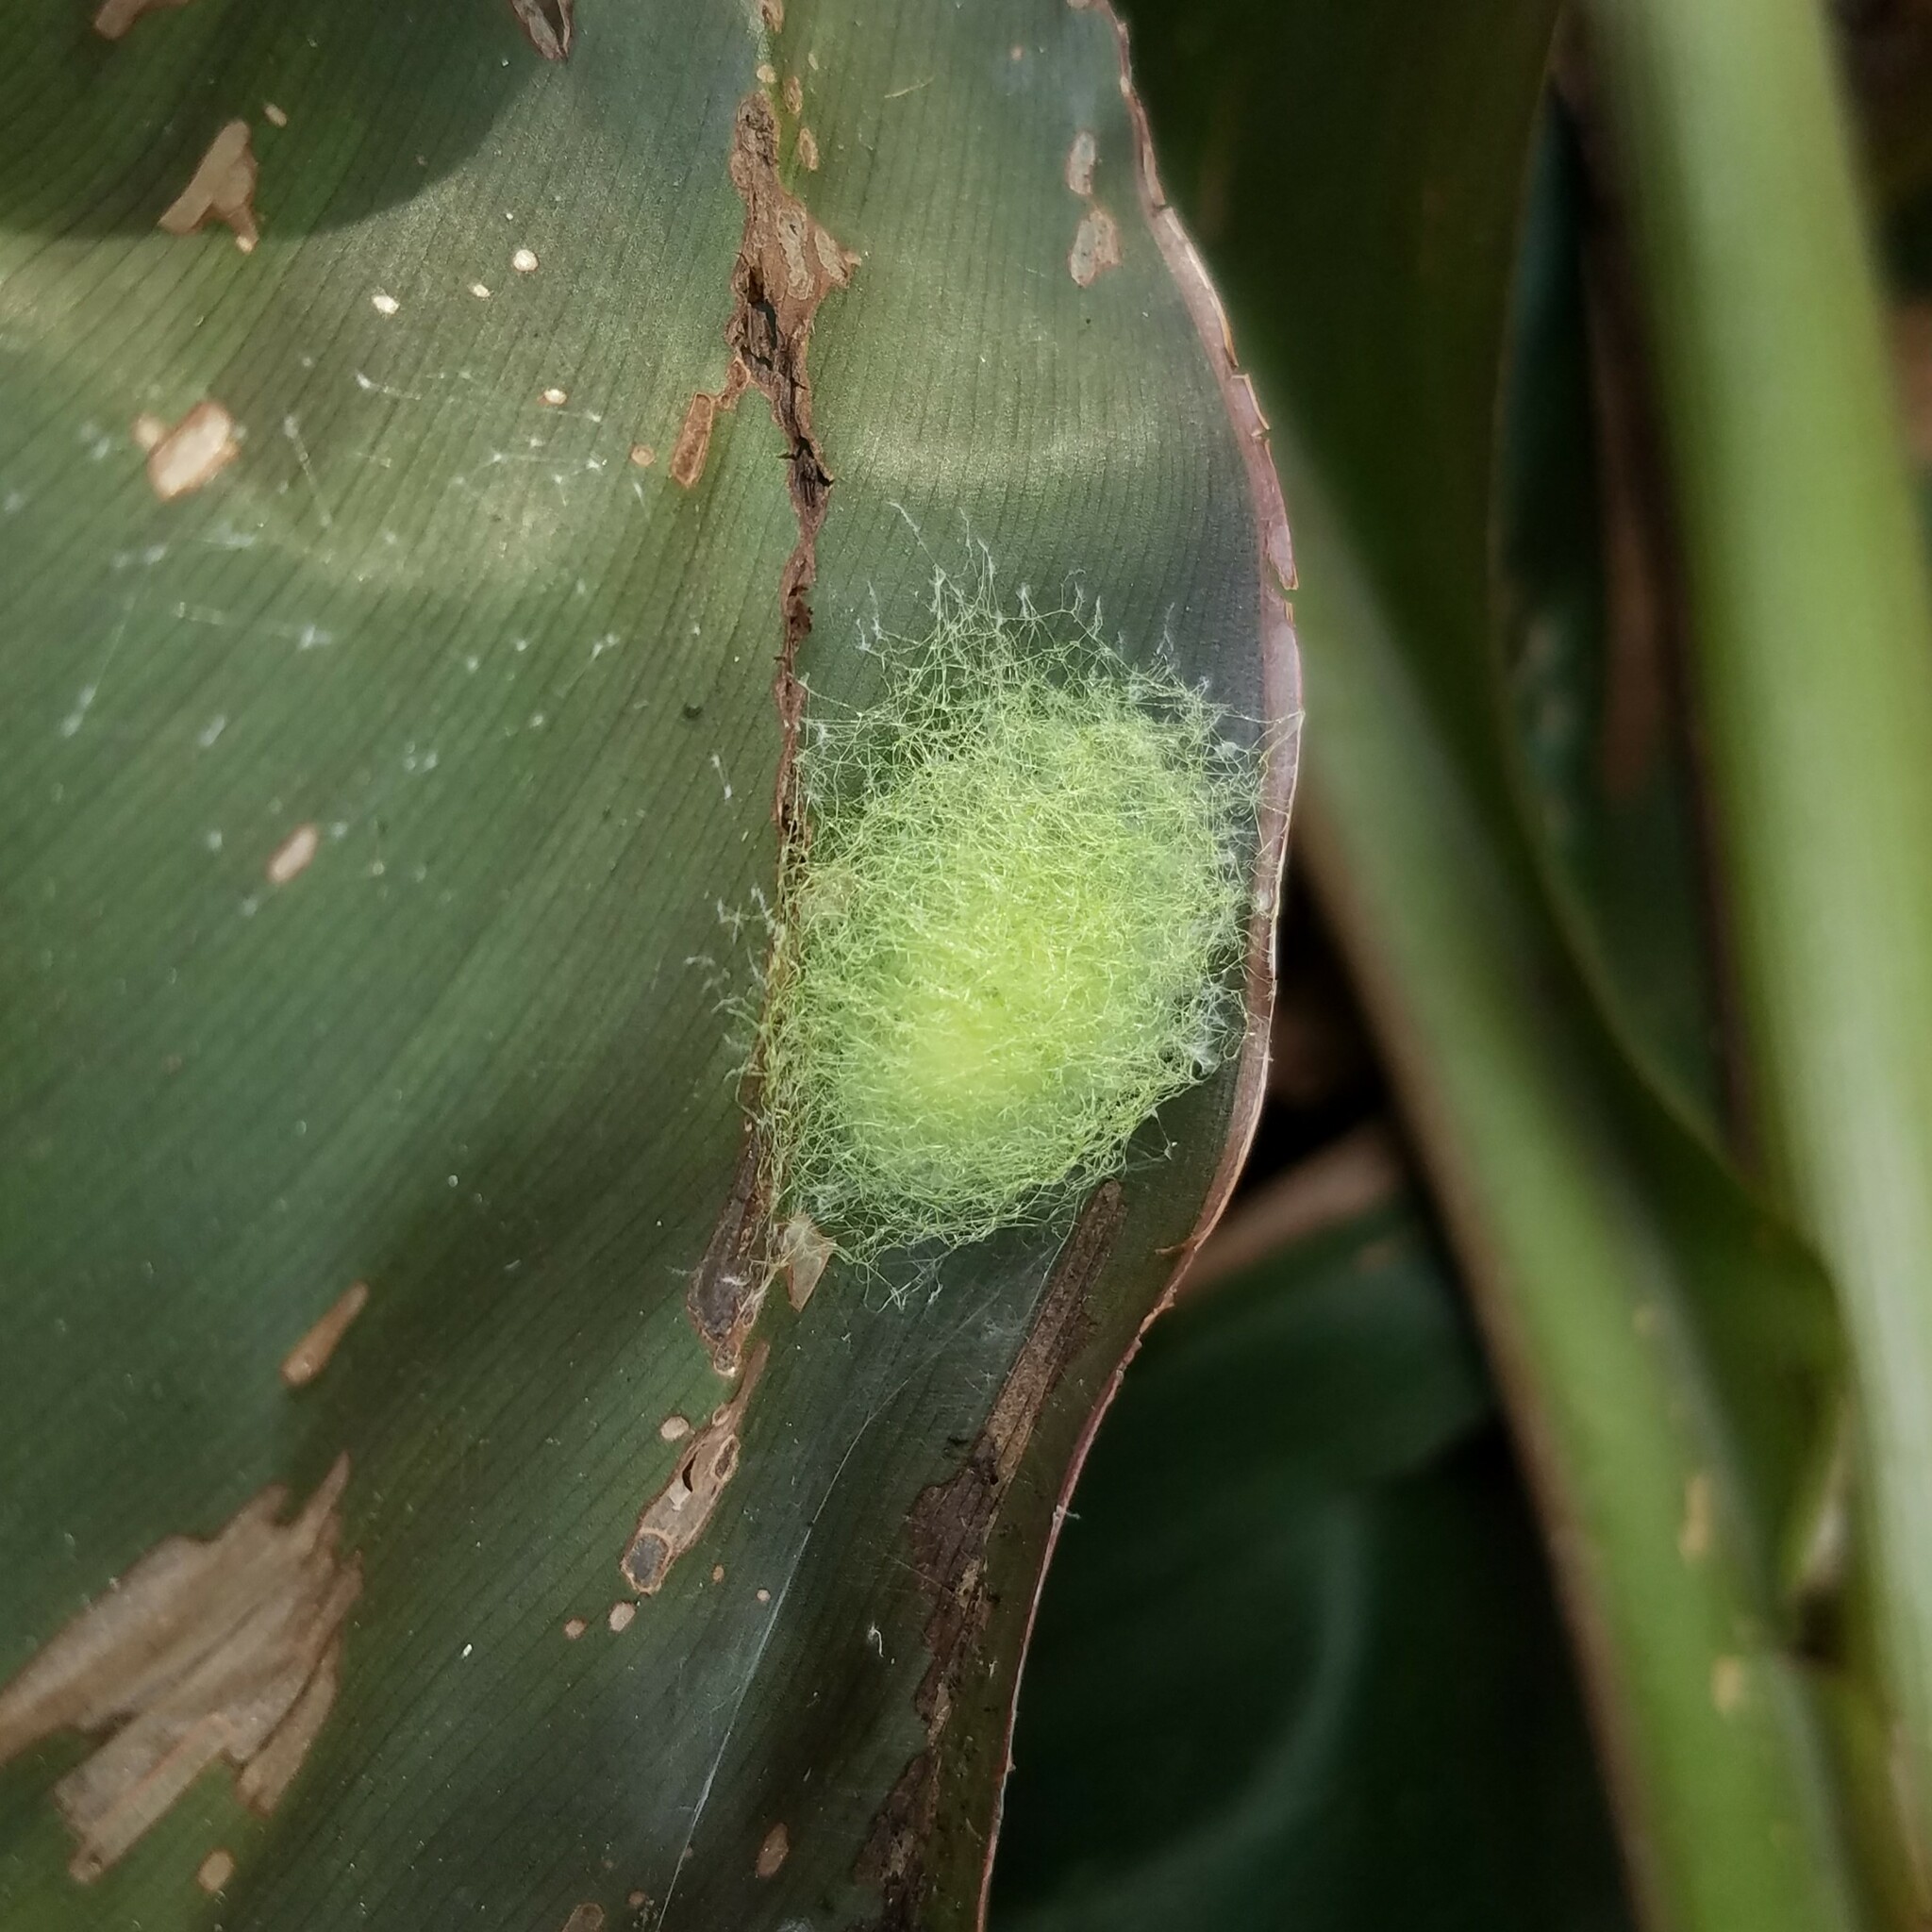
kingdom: Animalia
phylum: Arthropoda
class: Arachnida
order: Araneae
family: Araneidae
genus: Gasteracantha
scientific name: Gasteracantha cancriformis
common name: Orb weavers
